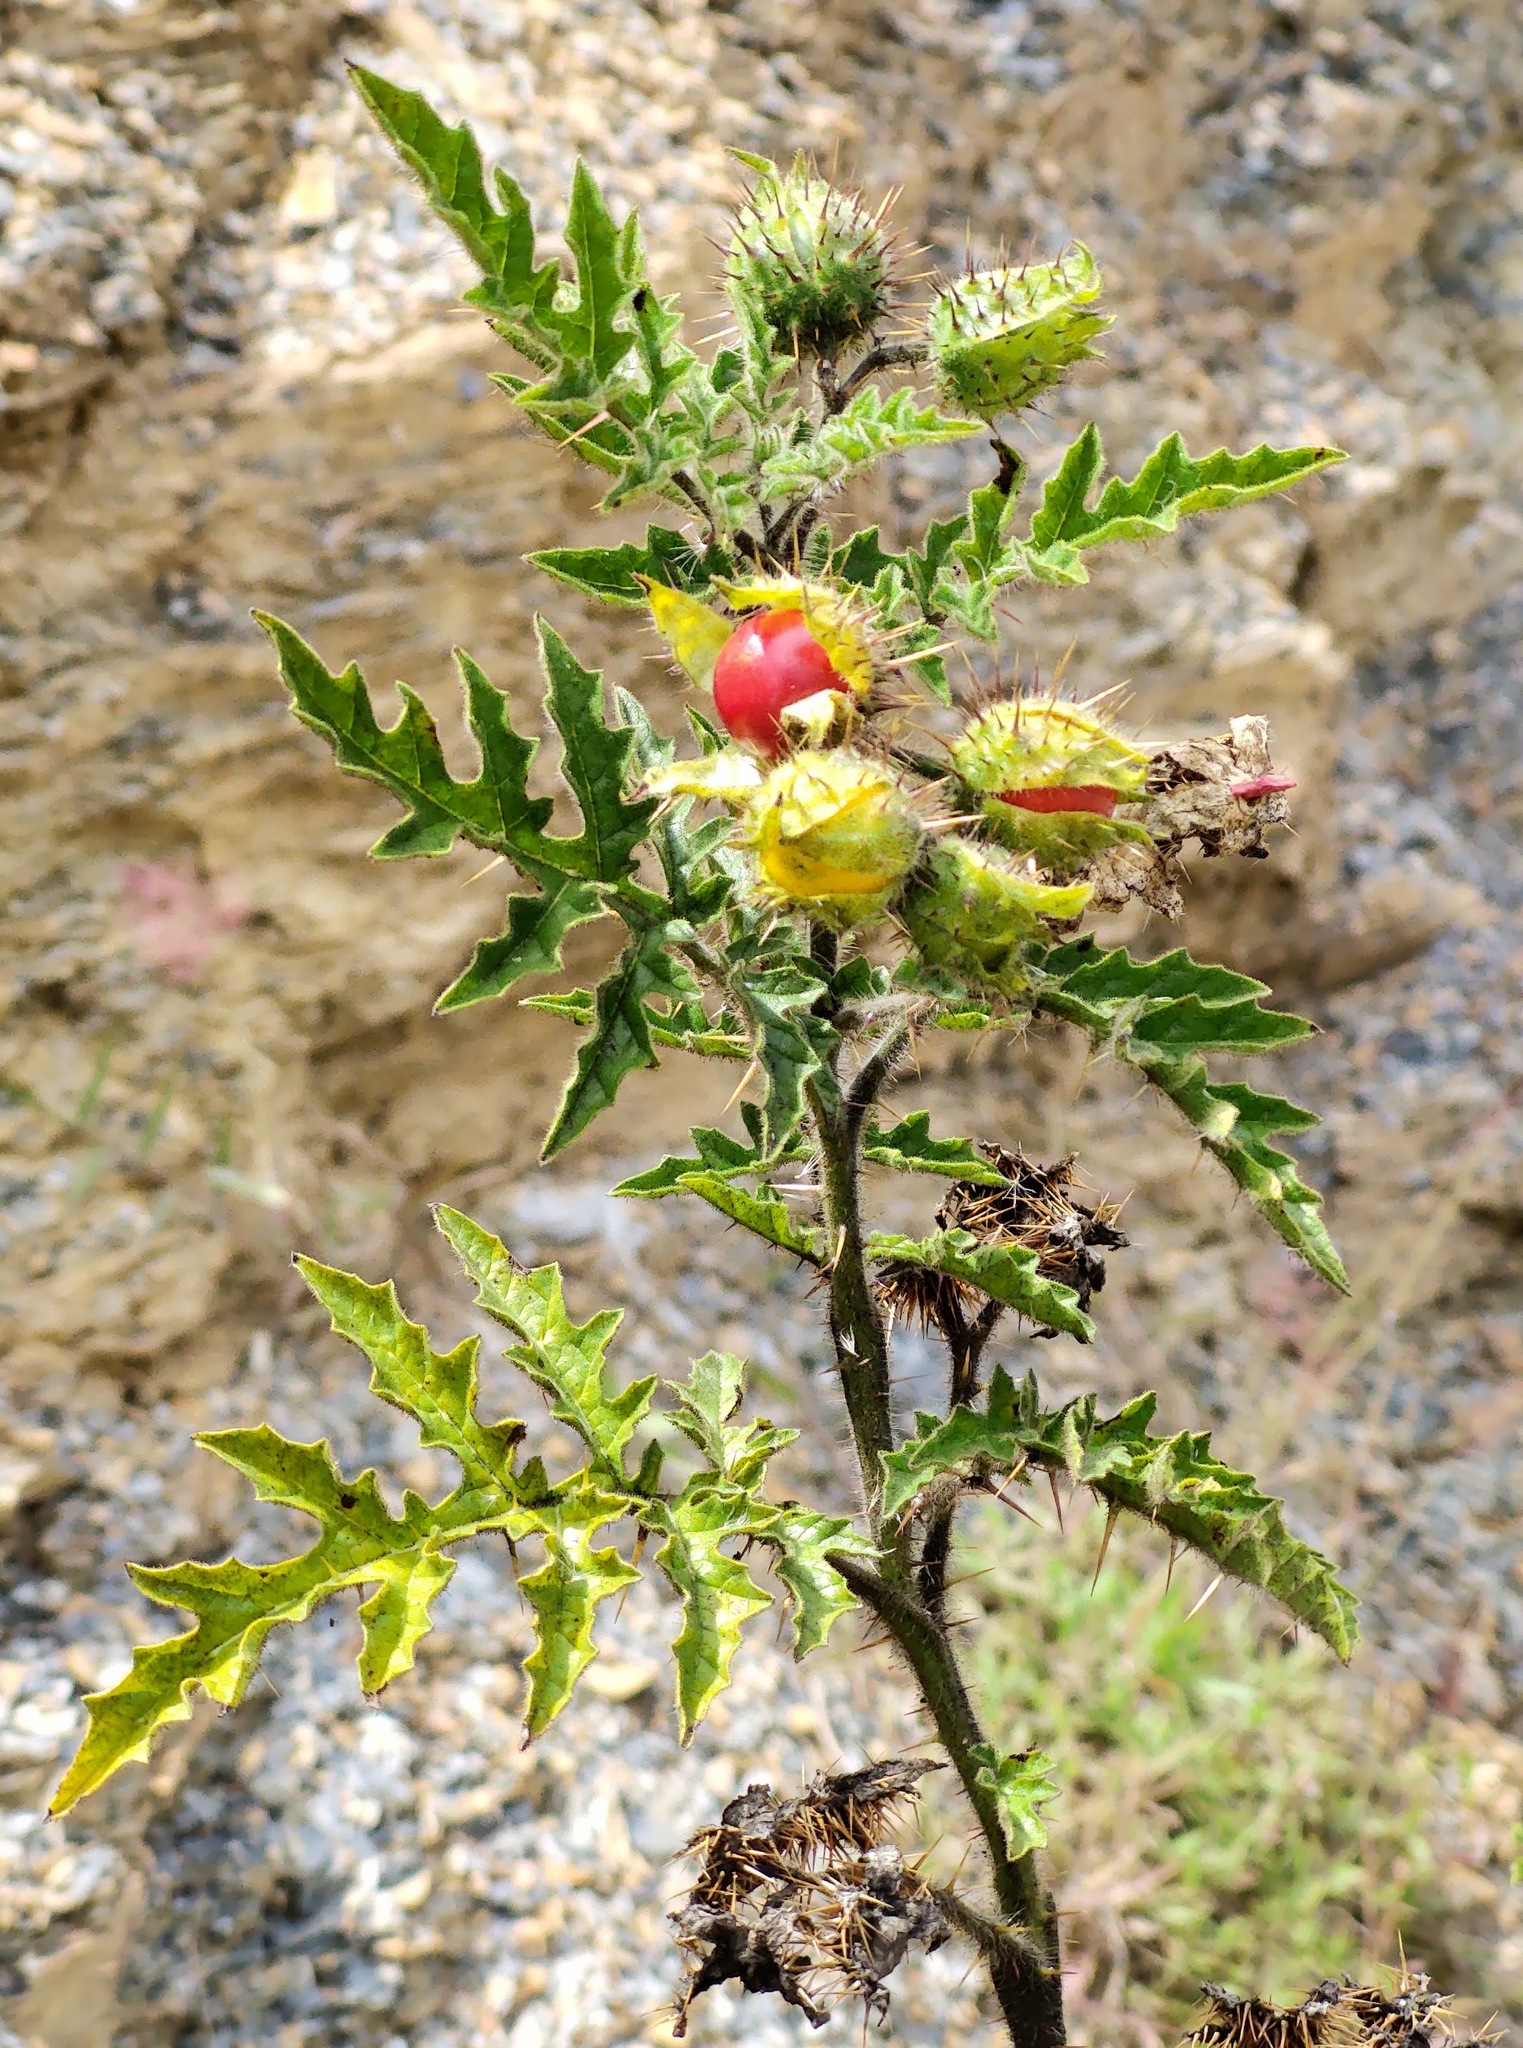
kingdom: Plantae
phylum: Tracheophyta
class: Magnoliopsida
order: Solanales
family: Solanaceae
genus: Solanum
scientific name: Solanum sisymbriifolium
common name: Red buffalo-bur
